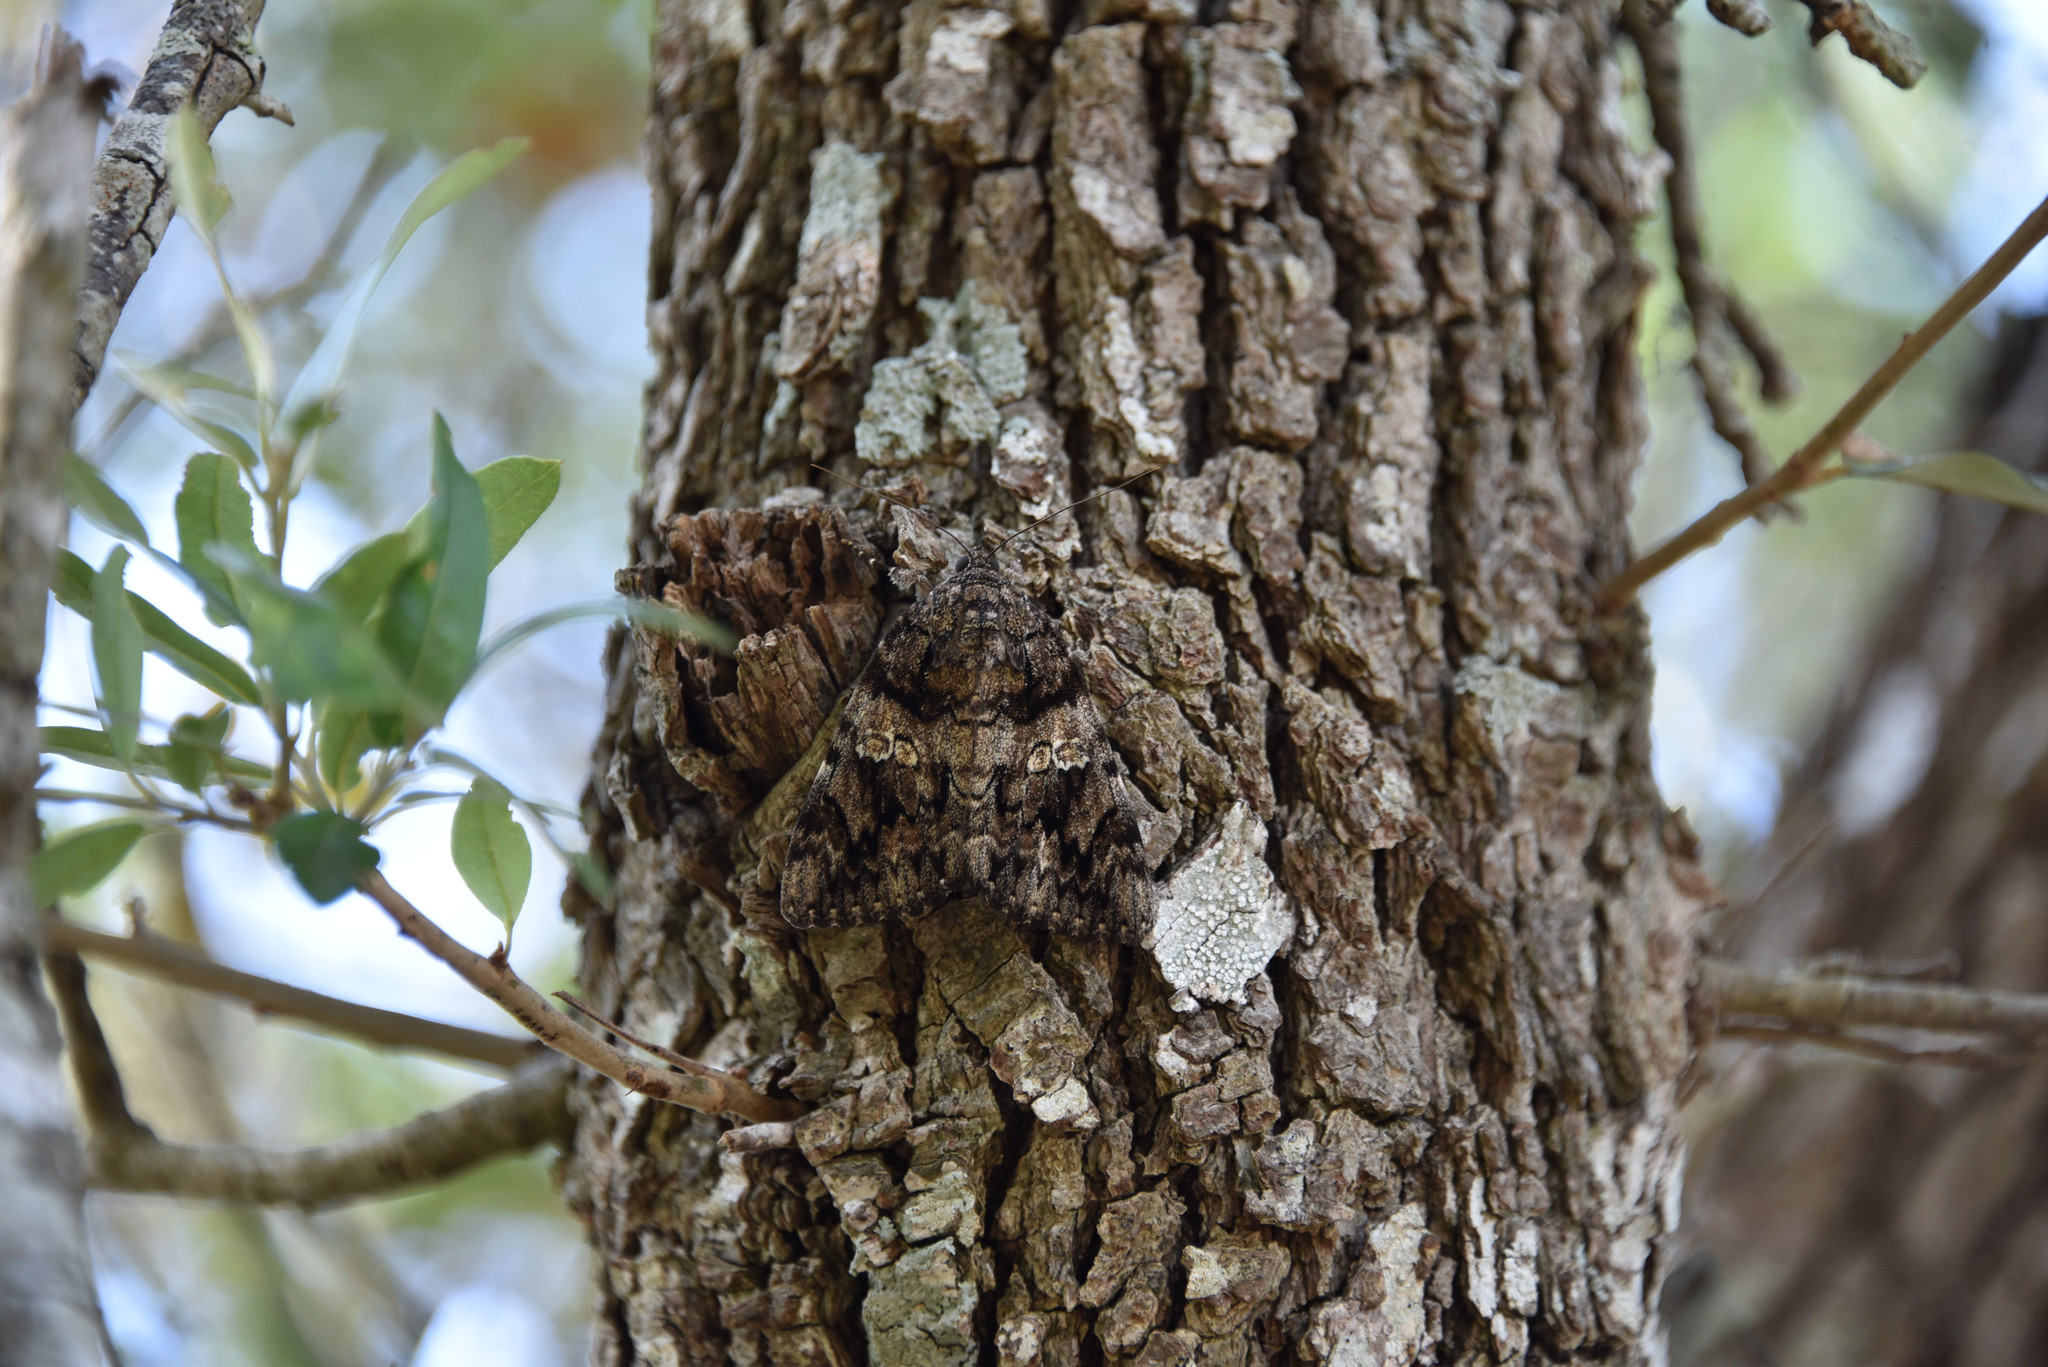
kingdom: Animalia
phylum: Arthropoda
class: Insecta
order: Lepidoptera
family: Erebidae
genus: Catocala
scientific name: Catocala ilia
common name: Ilia underwing
